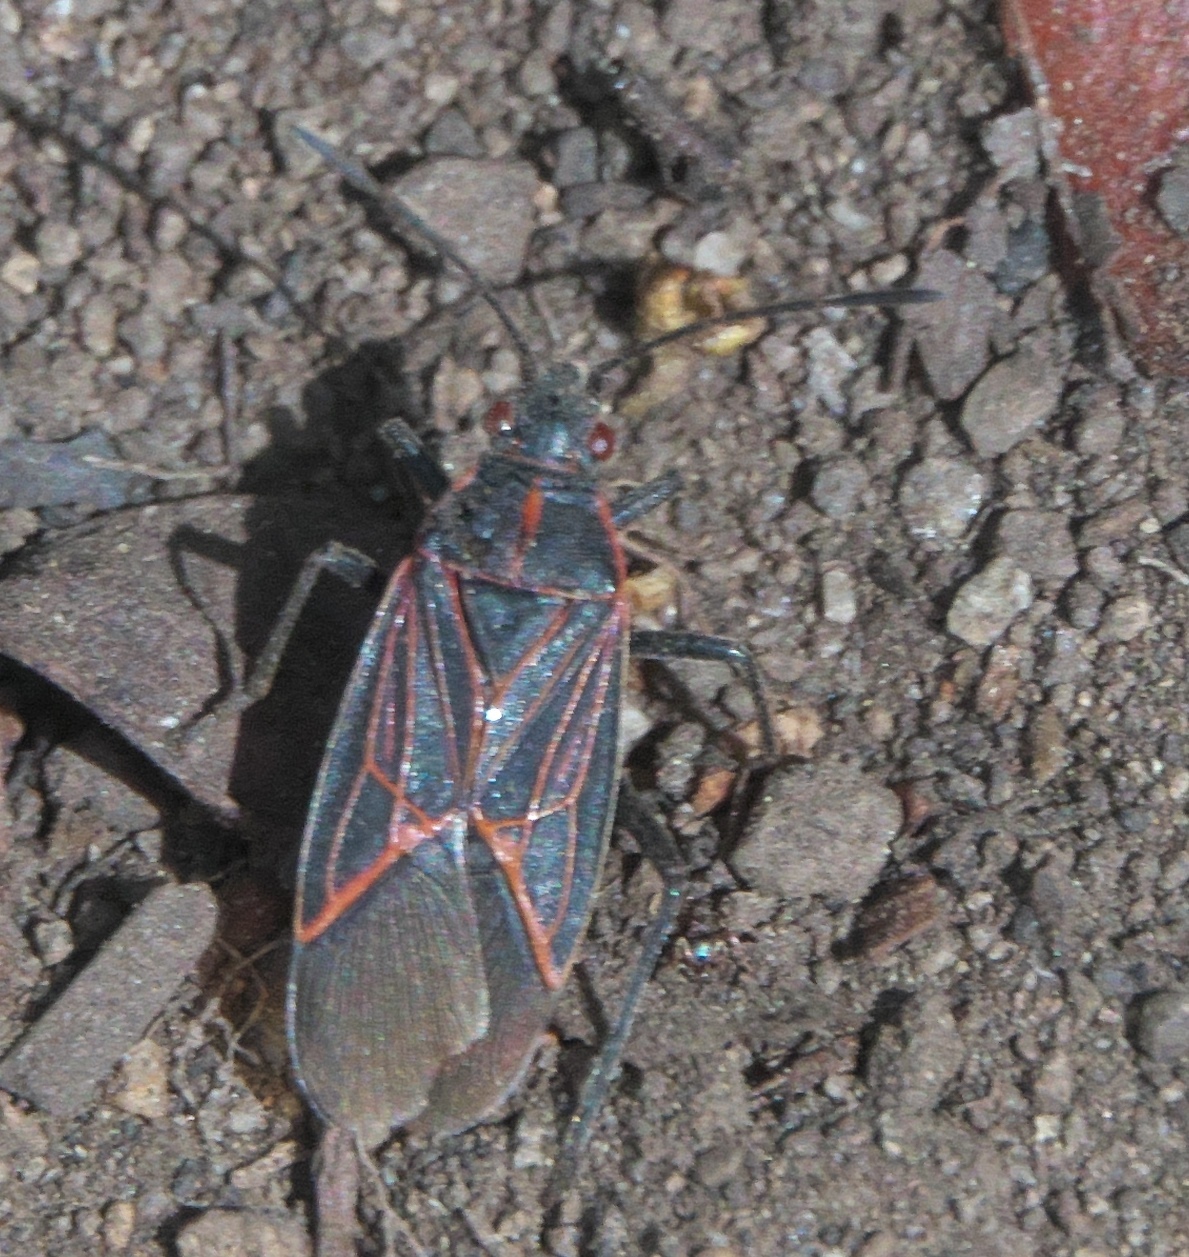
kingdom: Animalia
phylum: Arthropoda
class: Insecta
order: Hemiptera
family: Rhopalidae
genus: Boisea
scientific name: Boisea rubrolineata
